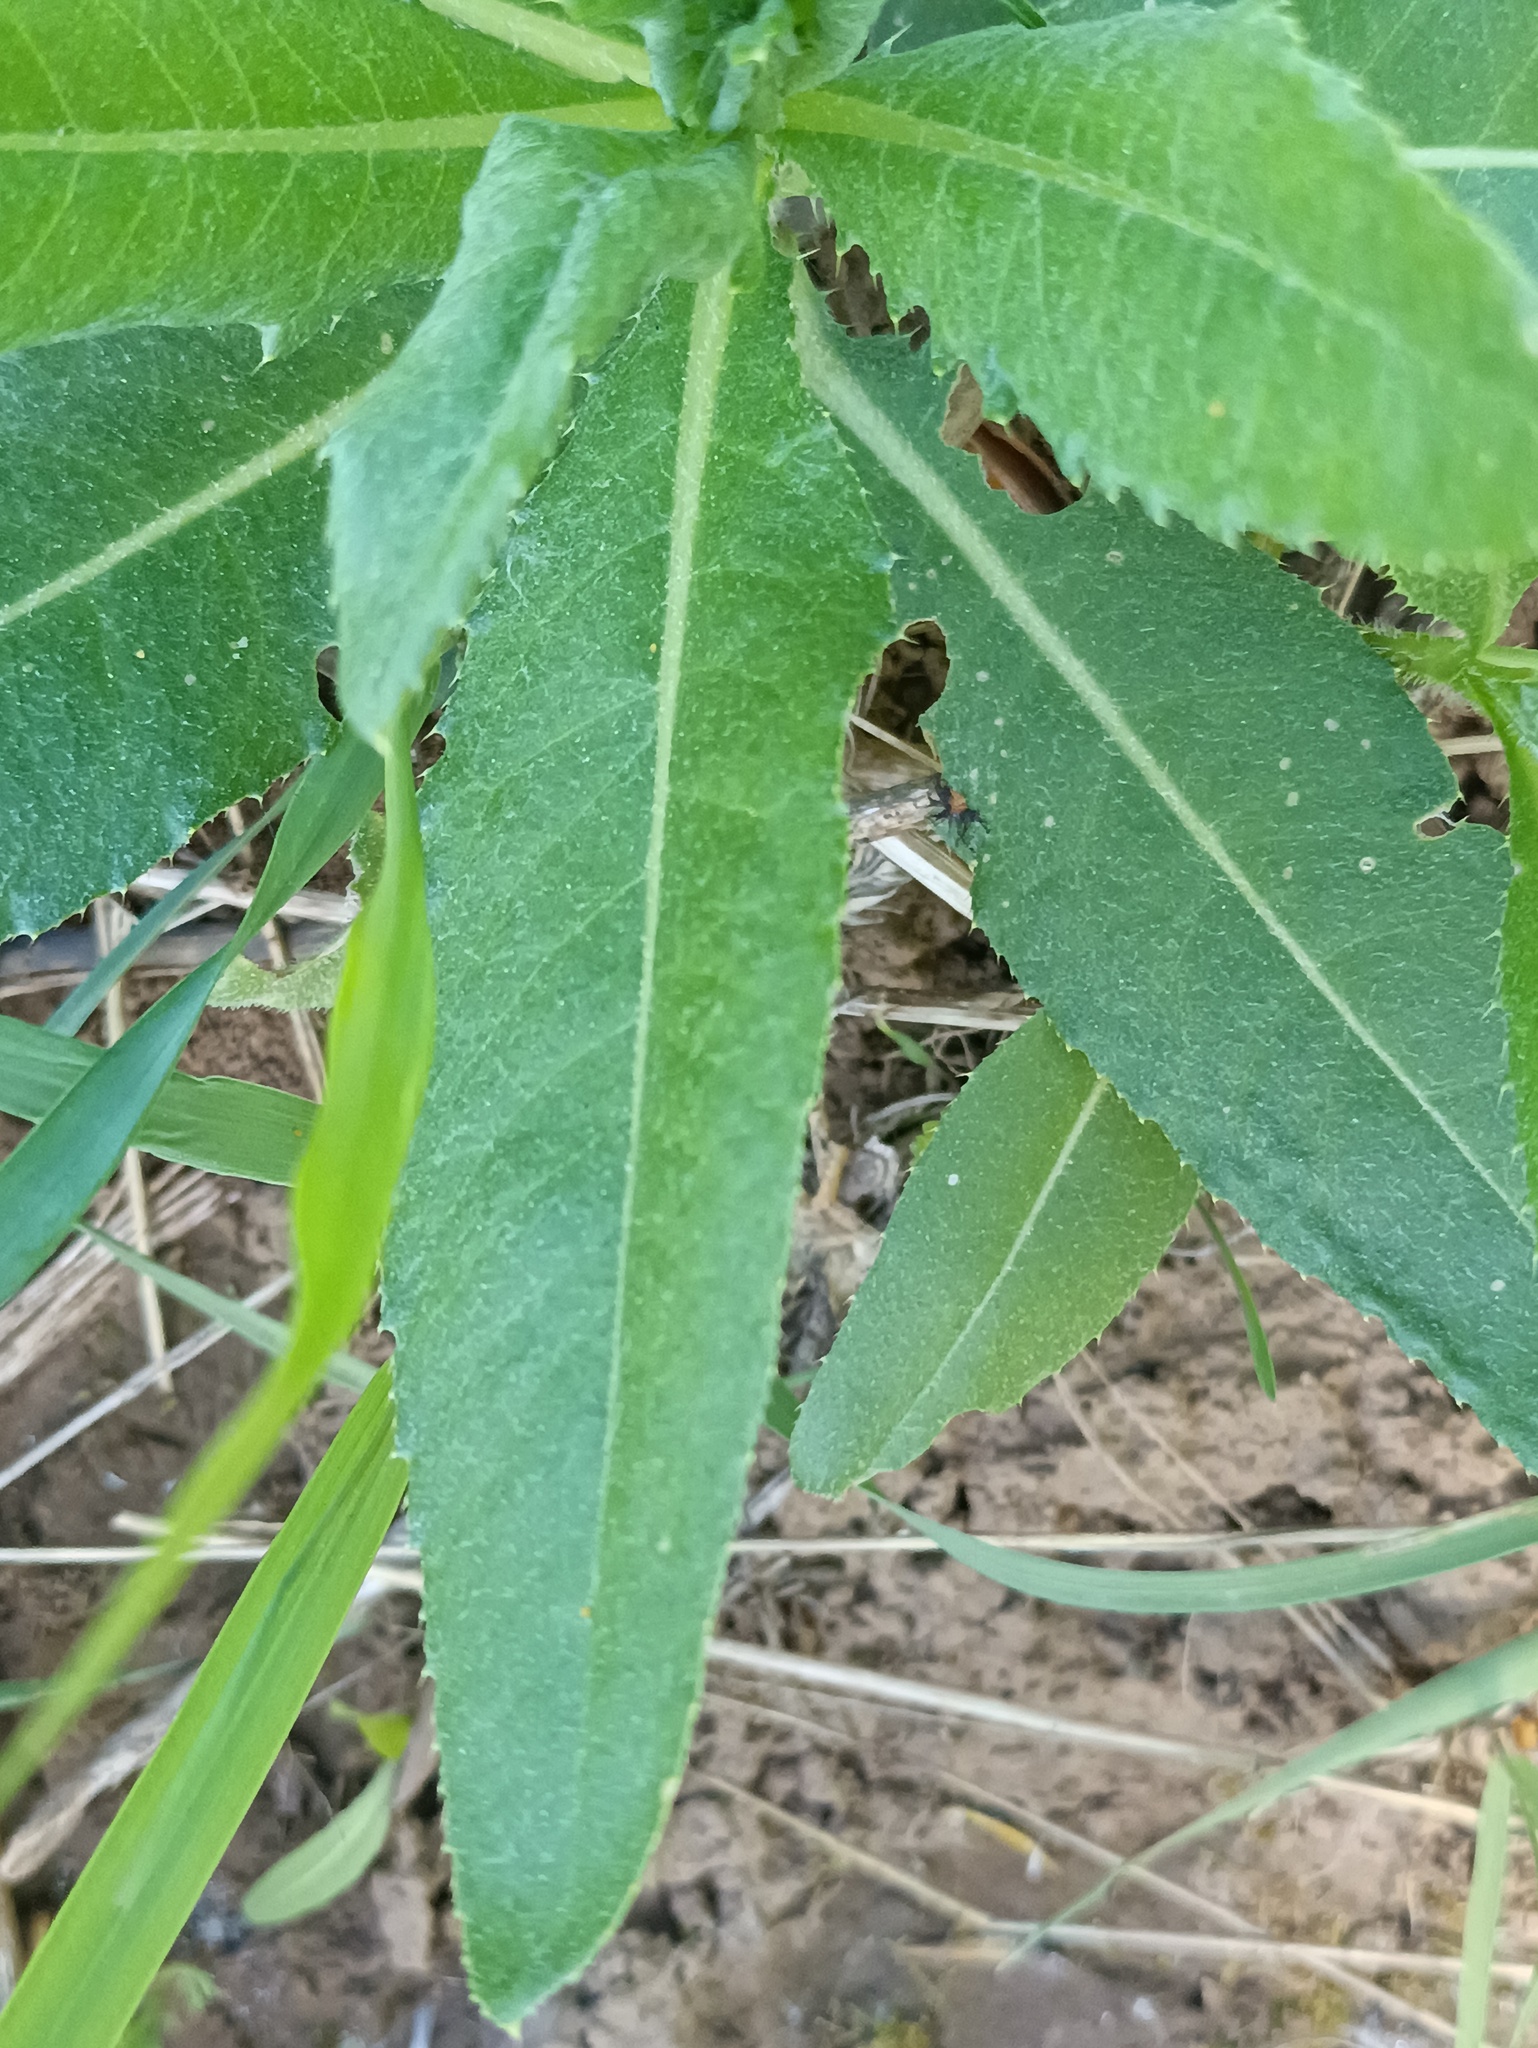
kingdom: Plantae
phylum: Tracheophyta
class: Magnoliopsida
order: Asterales
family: Asteraceae
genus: Cirsium
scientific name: Cirsium arvense
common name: Creeping thistle
